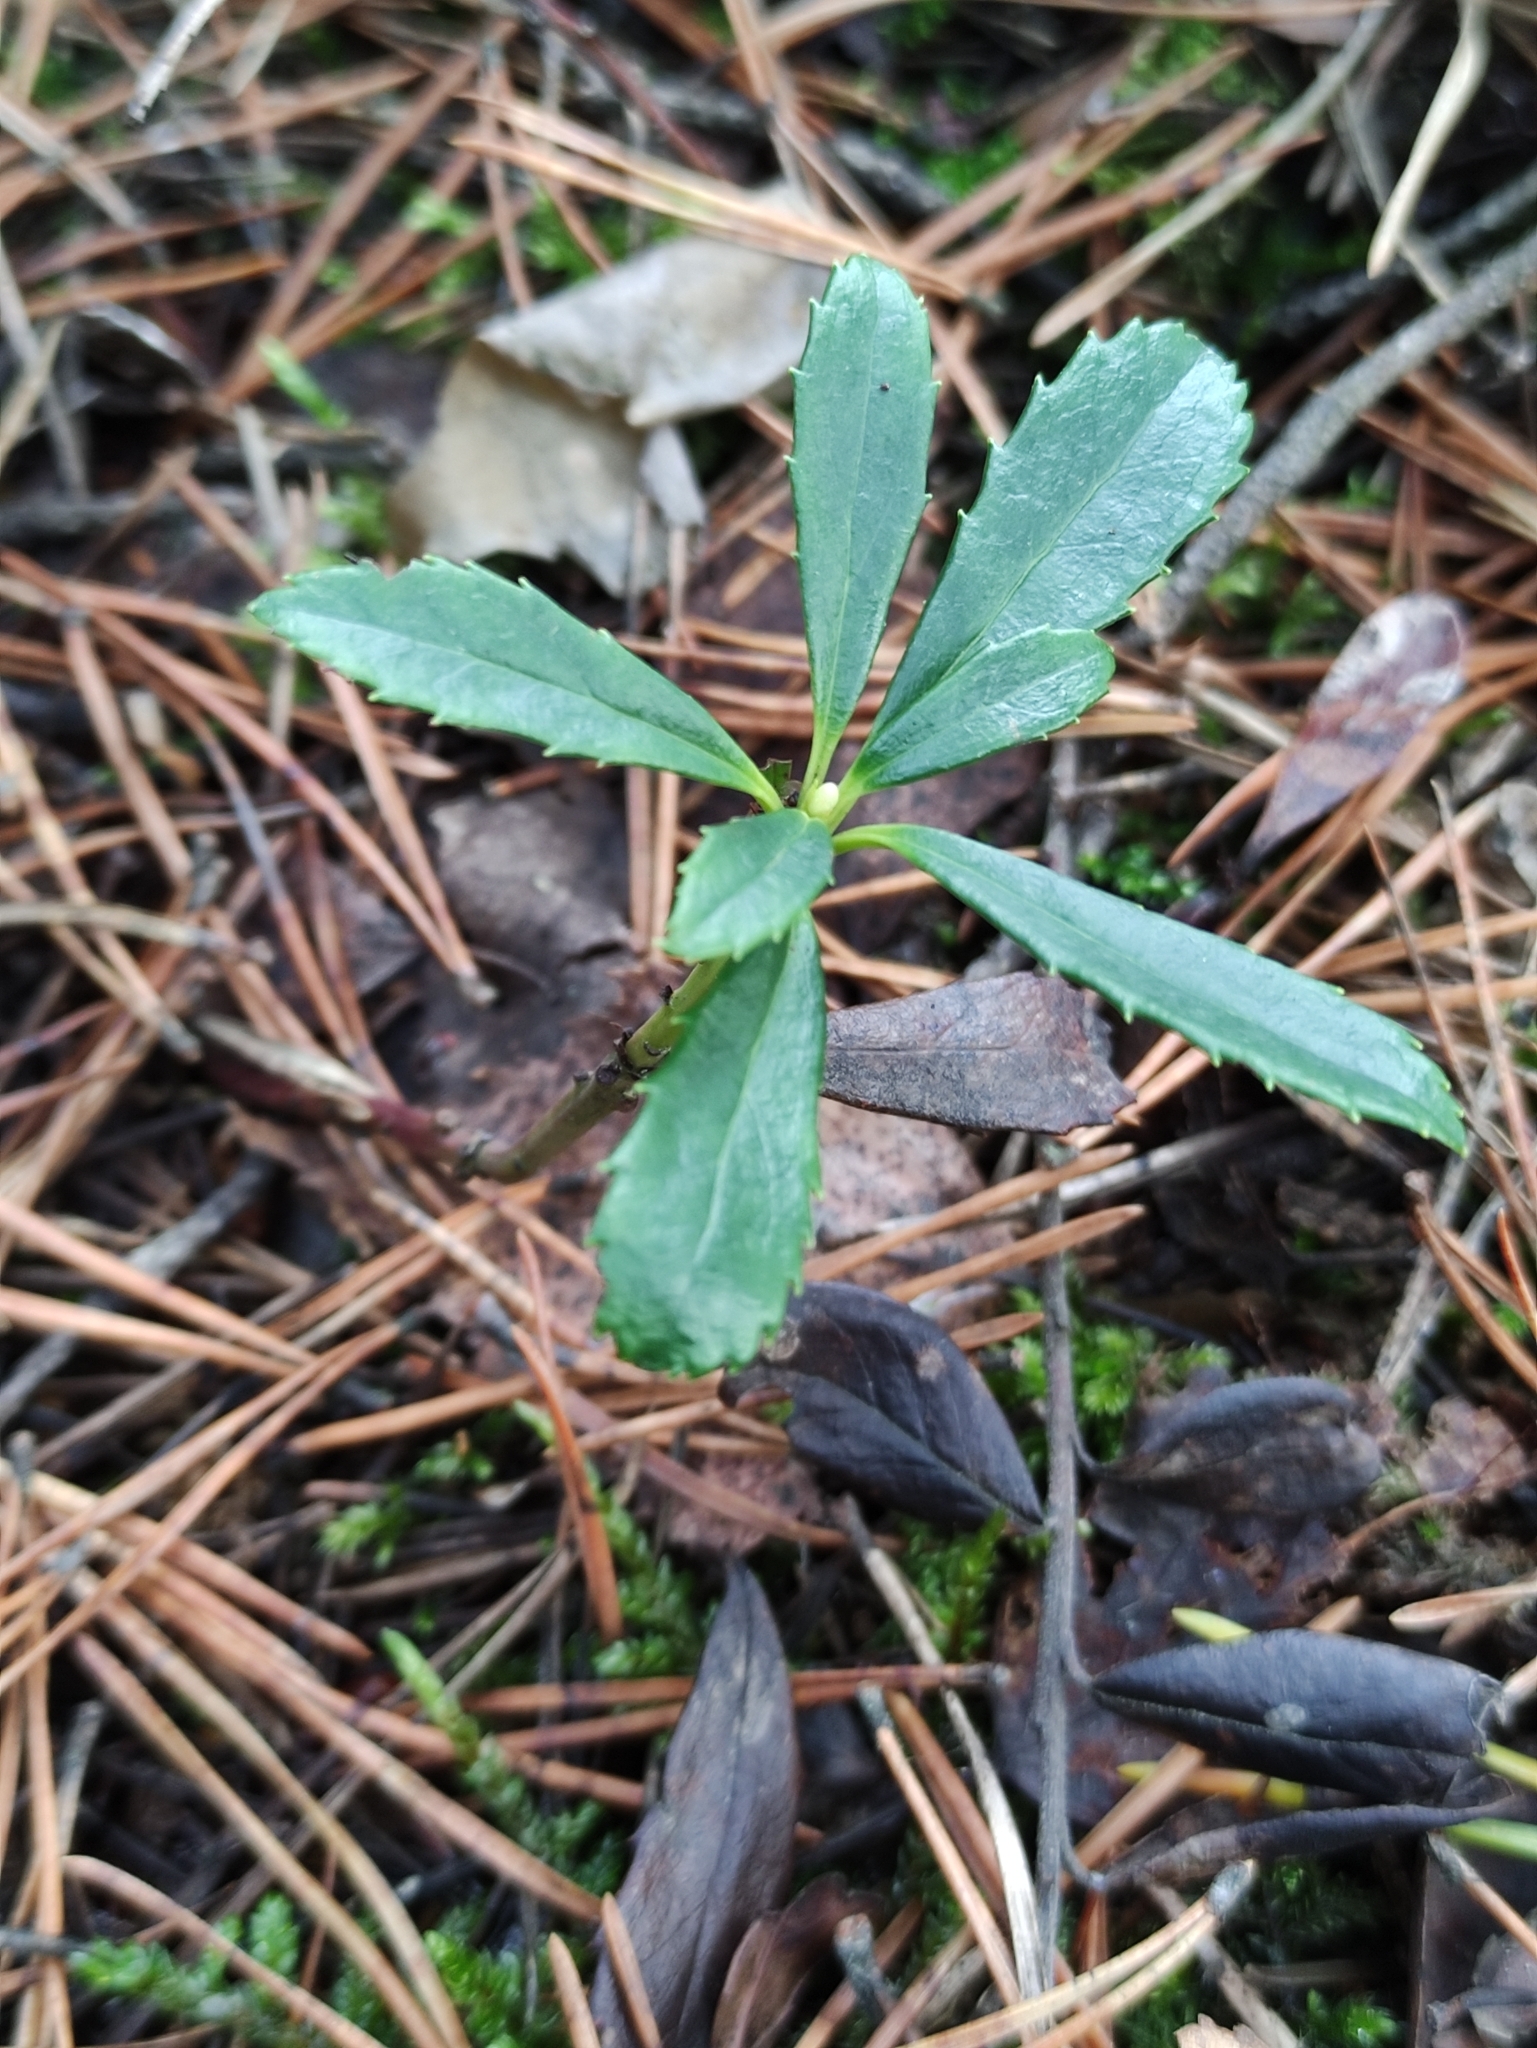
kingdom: Plantae
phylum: Tracheophyta
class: Magnoliopsida
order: Ericales
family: Ericaceae
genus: Chimaphila
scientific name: Chimaphila umbellata
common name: Pipsissewa
